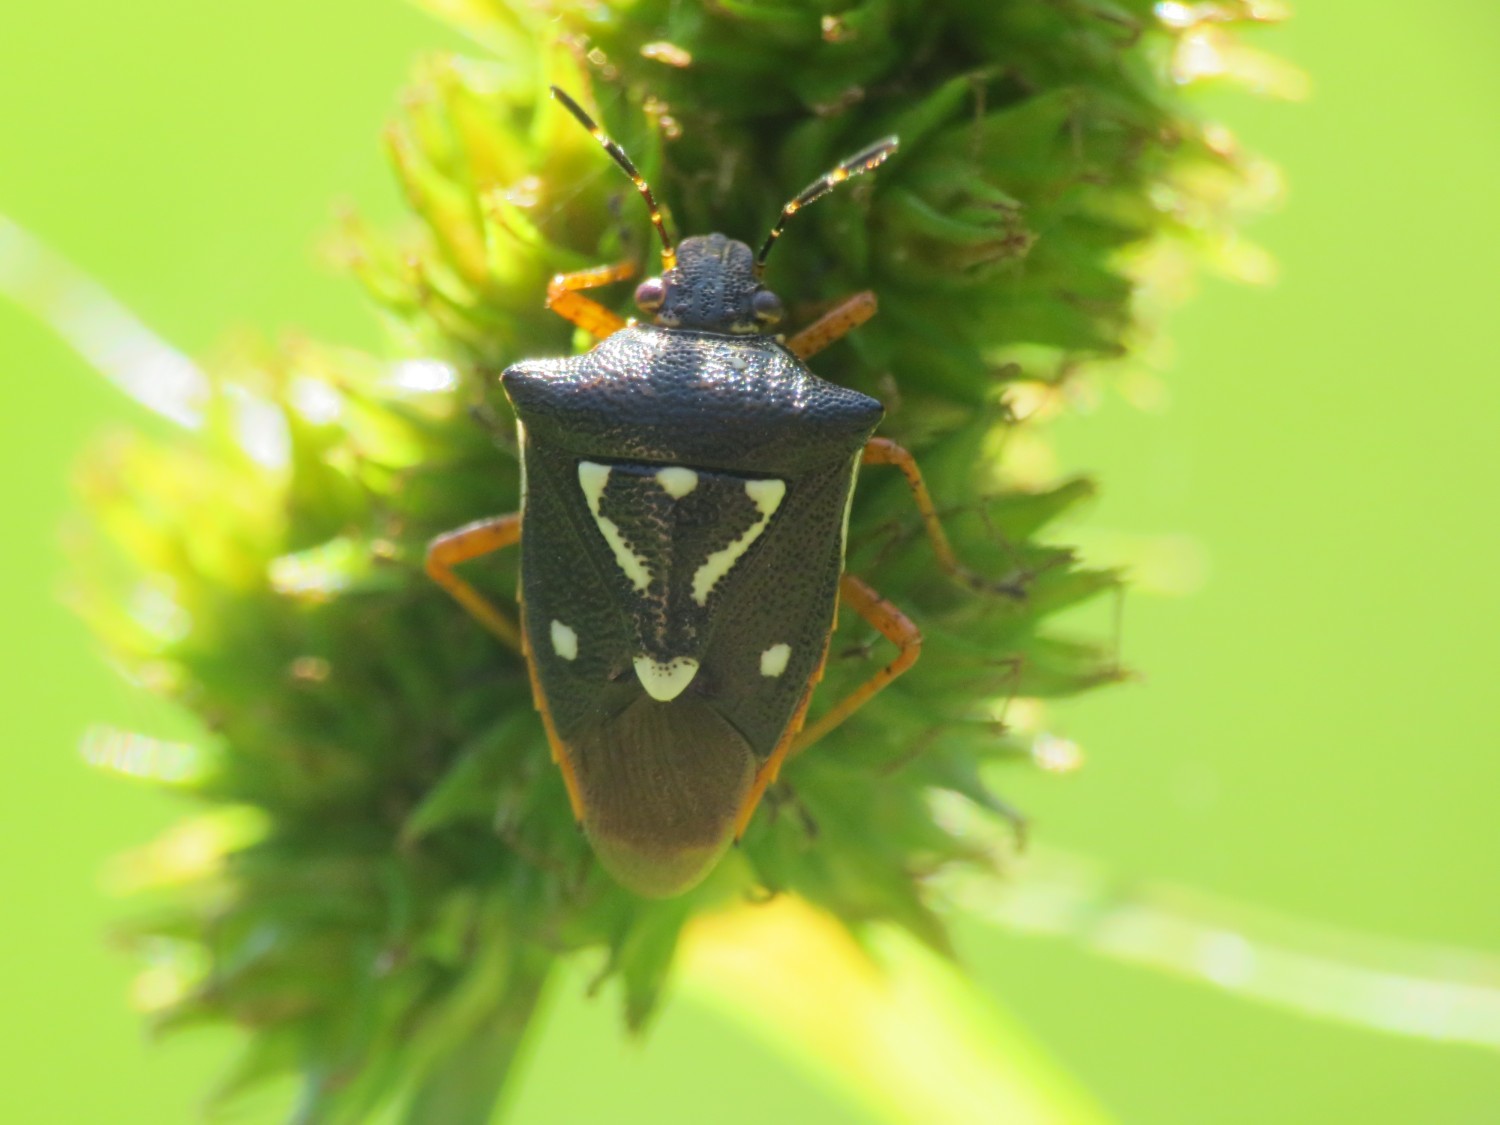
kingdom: Animalia
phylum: Arthropoda
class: Insecta
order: Hemiptera
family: Pentatomidae
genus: Mormidea
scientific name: Mormidea v-luteum
